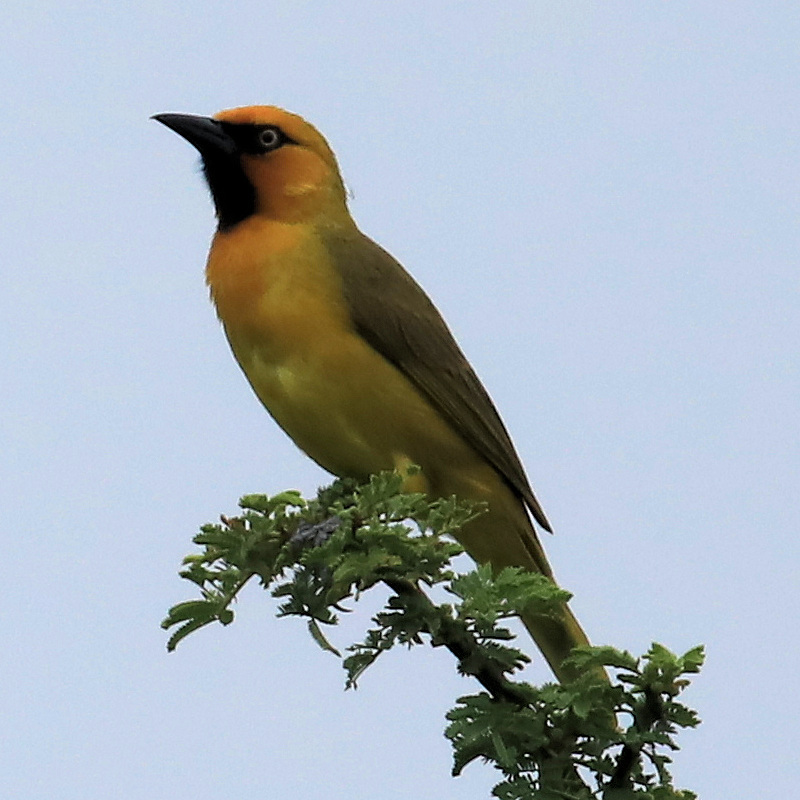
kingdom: Animalia
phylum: Chordata
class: Aves
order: Passeriformes
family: Ploceidae
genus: Ploceus
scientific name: Ploceus ocularis
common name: Spectacled weaver
